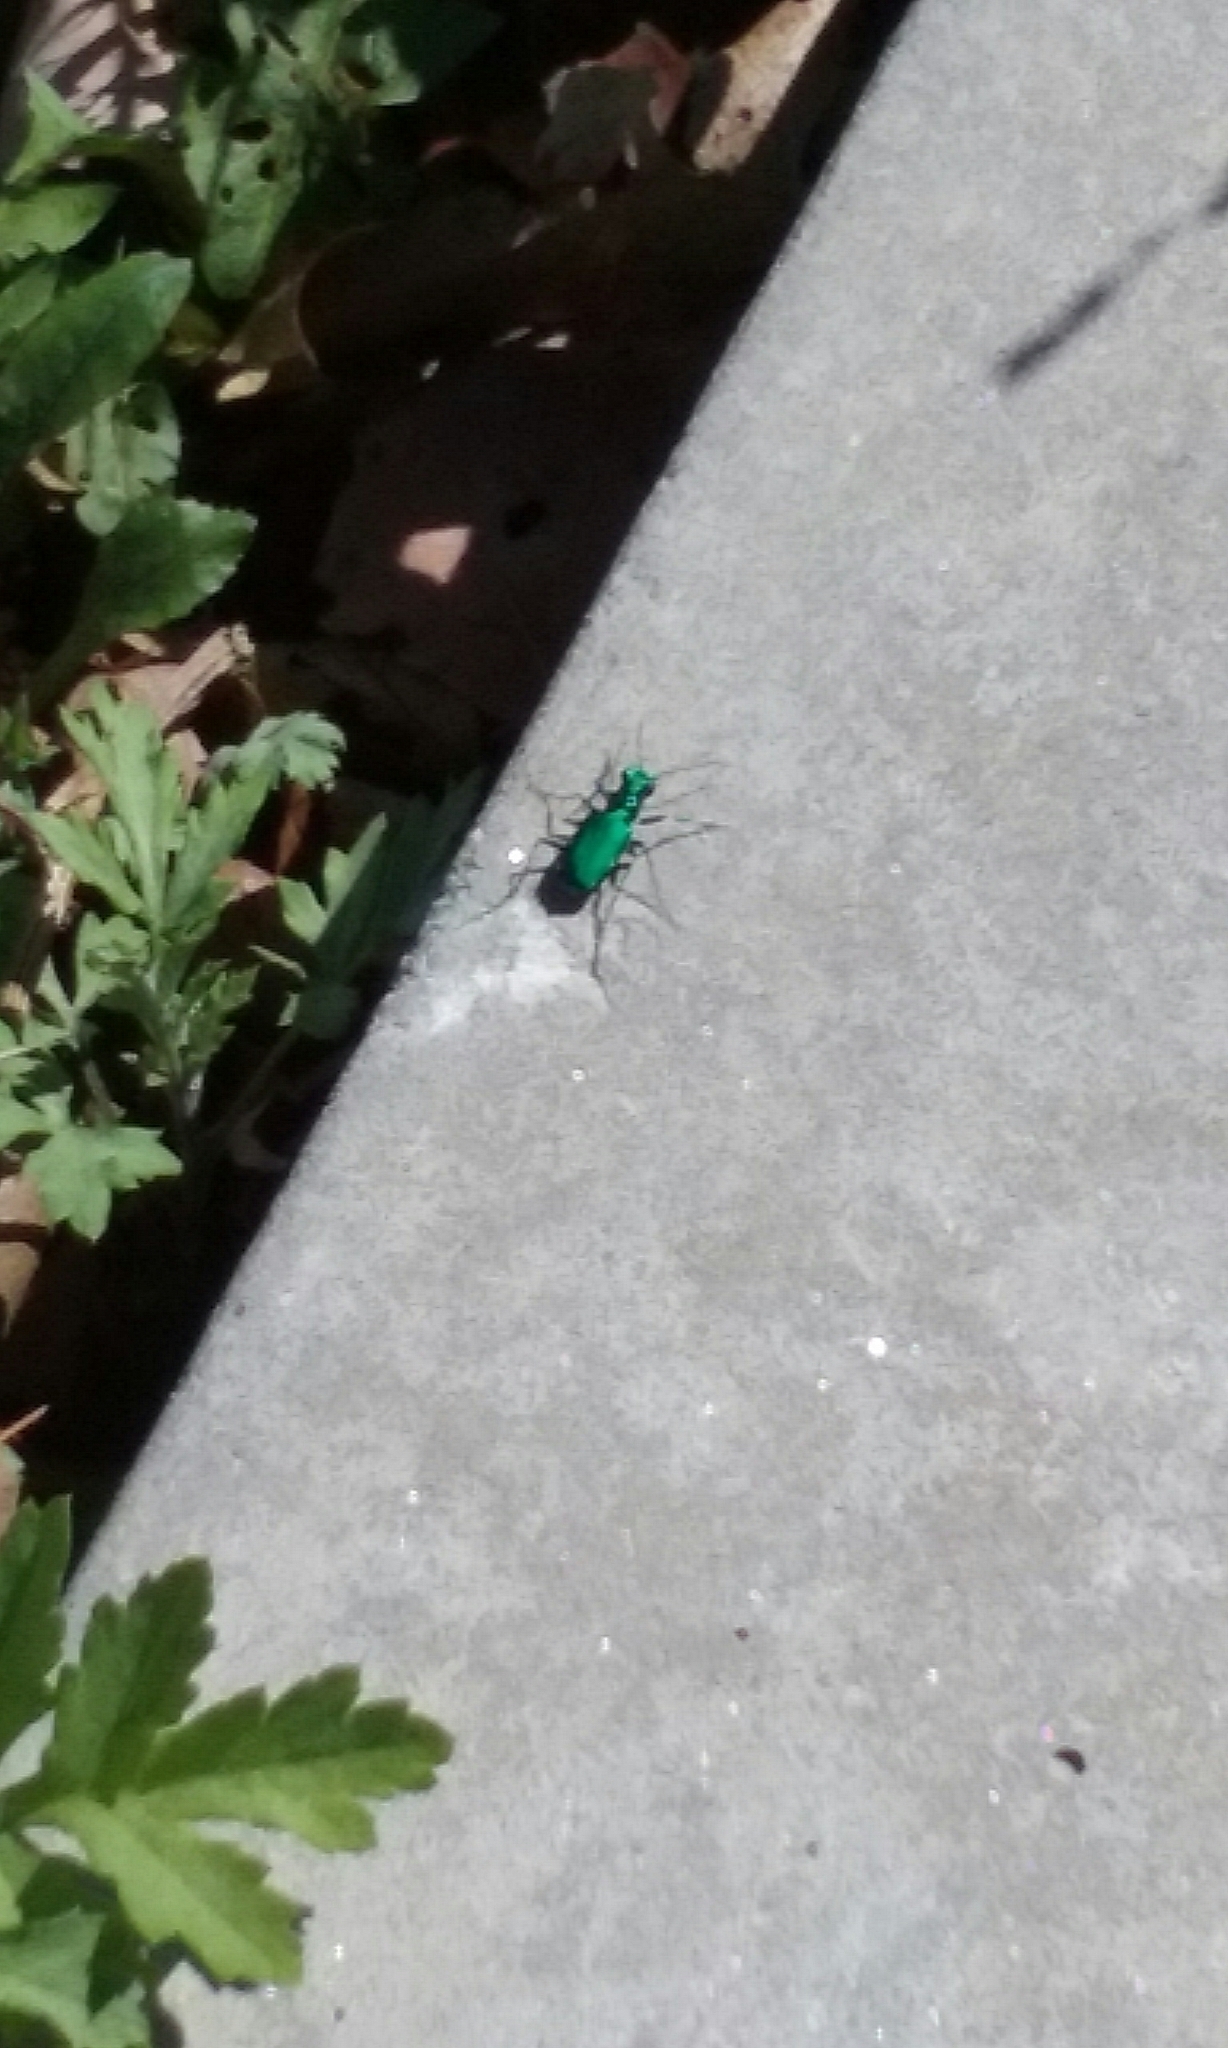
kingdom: Animalia
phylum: Arthropoda
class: Insecta
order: Coleoptera
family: Carabidae
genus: Cicindela
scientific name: Cicindela sexguttata
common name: Six-spotted tiger beetle
